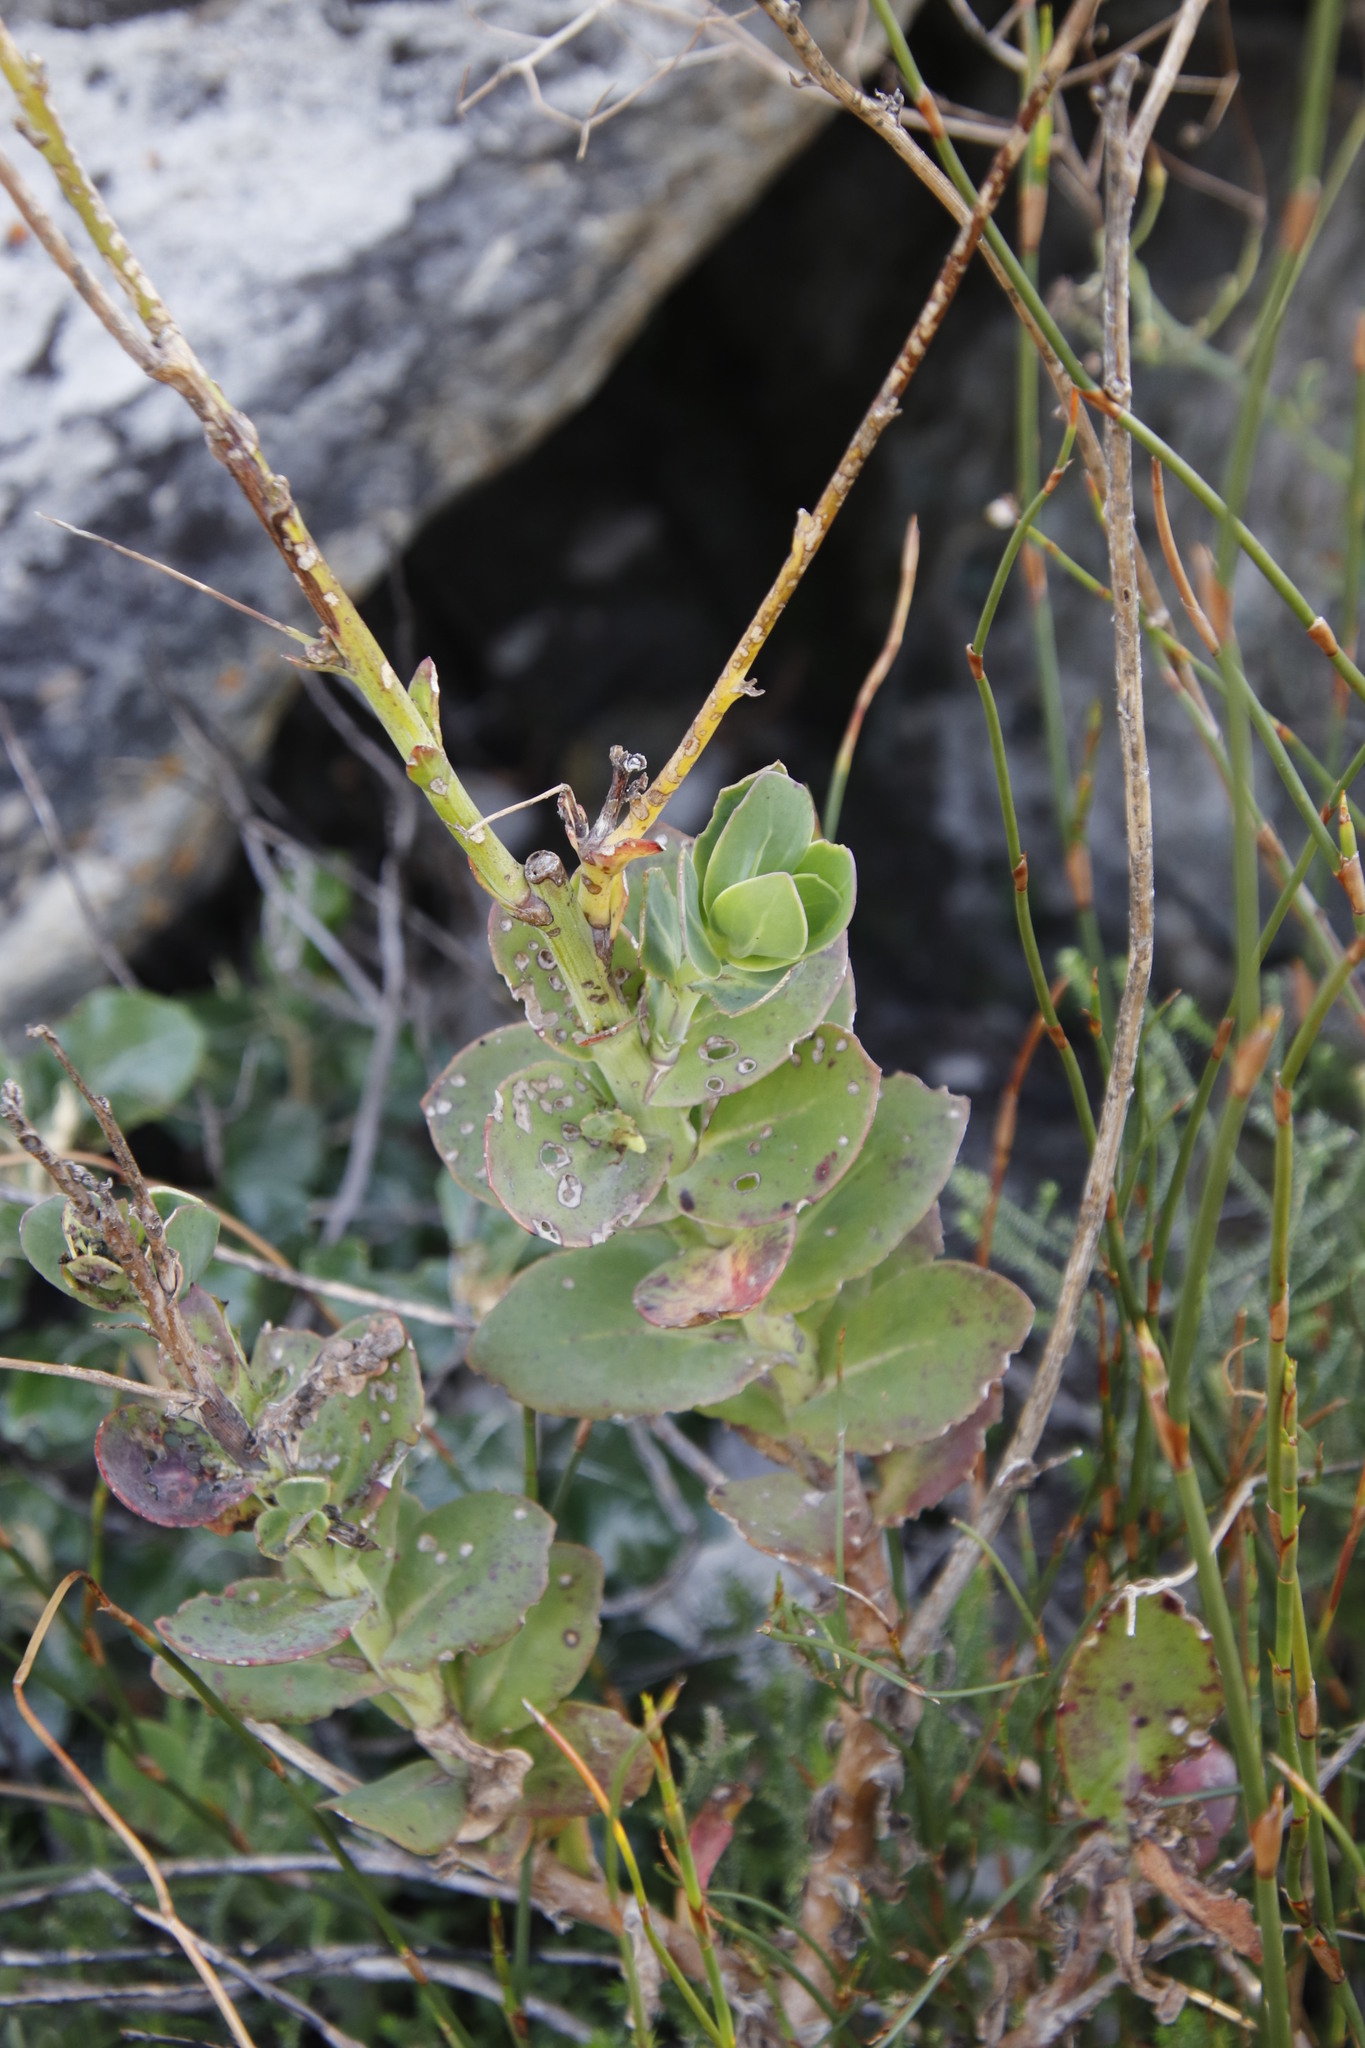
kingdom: Plantae
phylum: Tracheophyta
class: Magnoliopsida
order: Asterales
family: Asteraceae
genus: Osteospermum
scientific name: Osteospermum polygaloides
